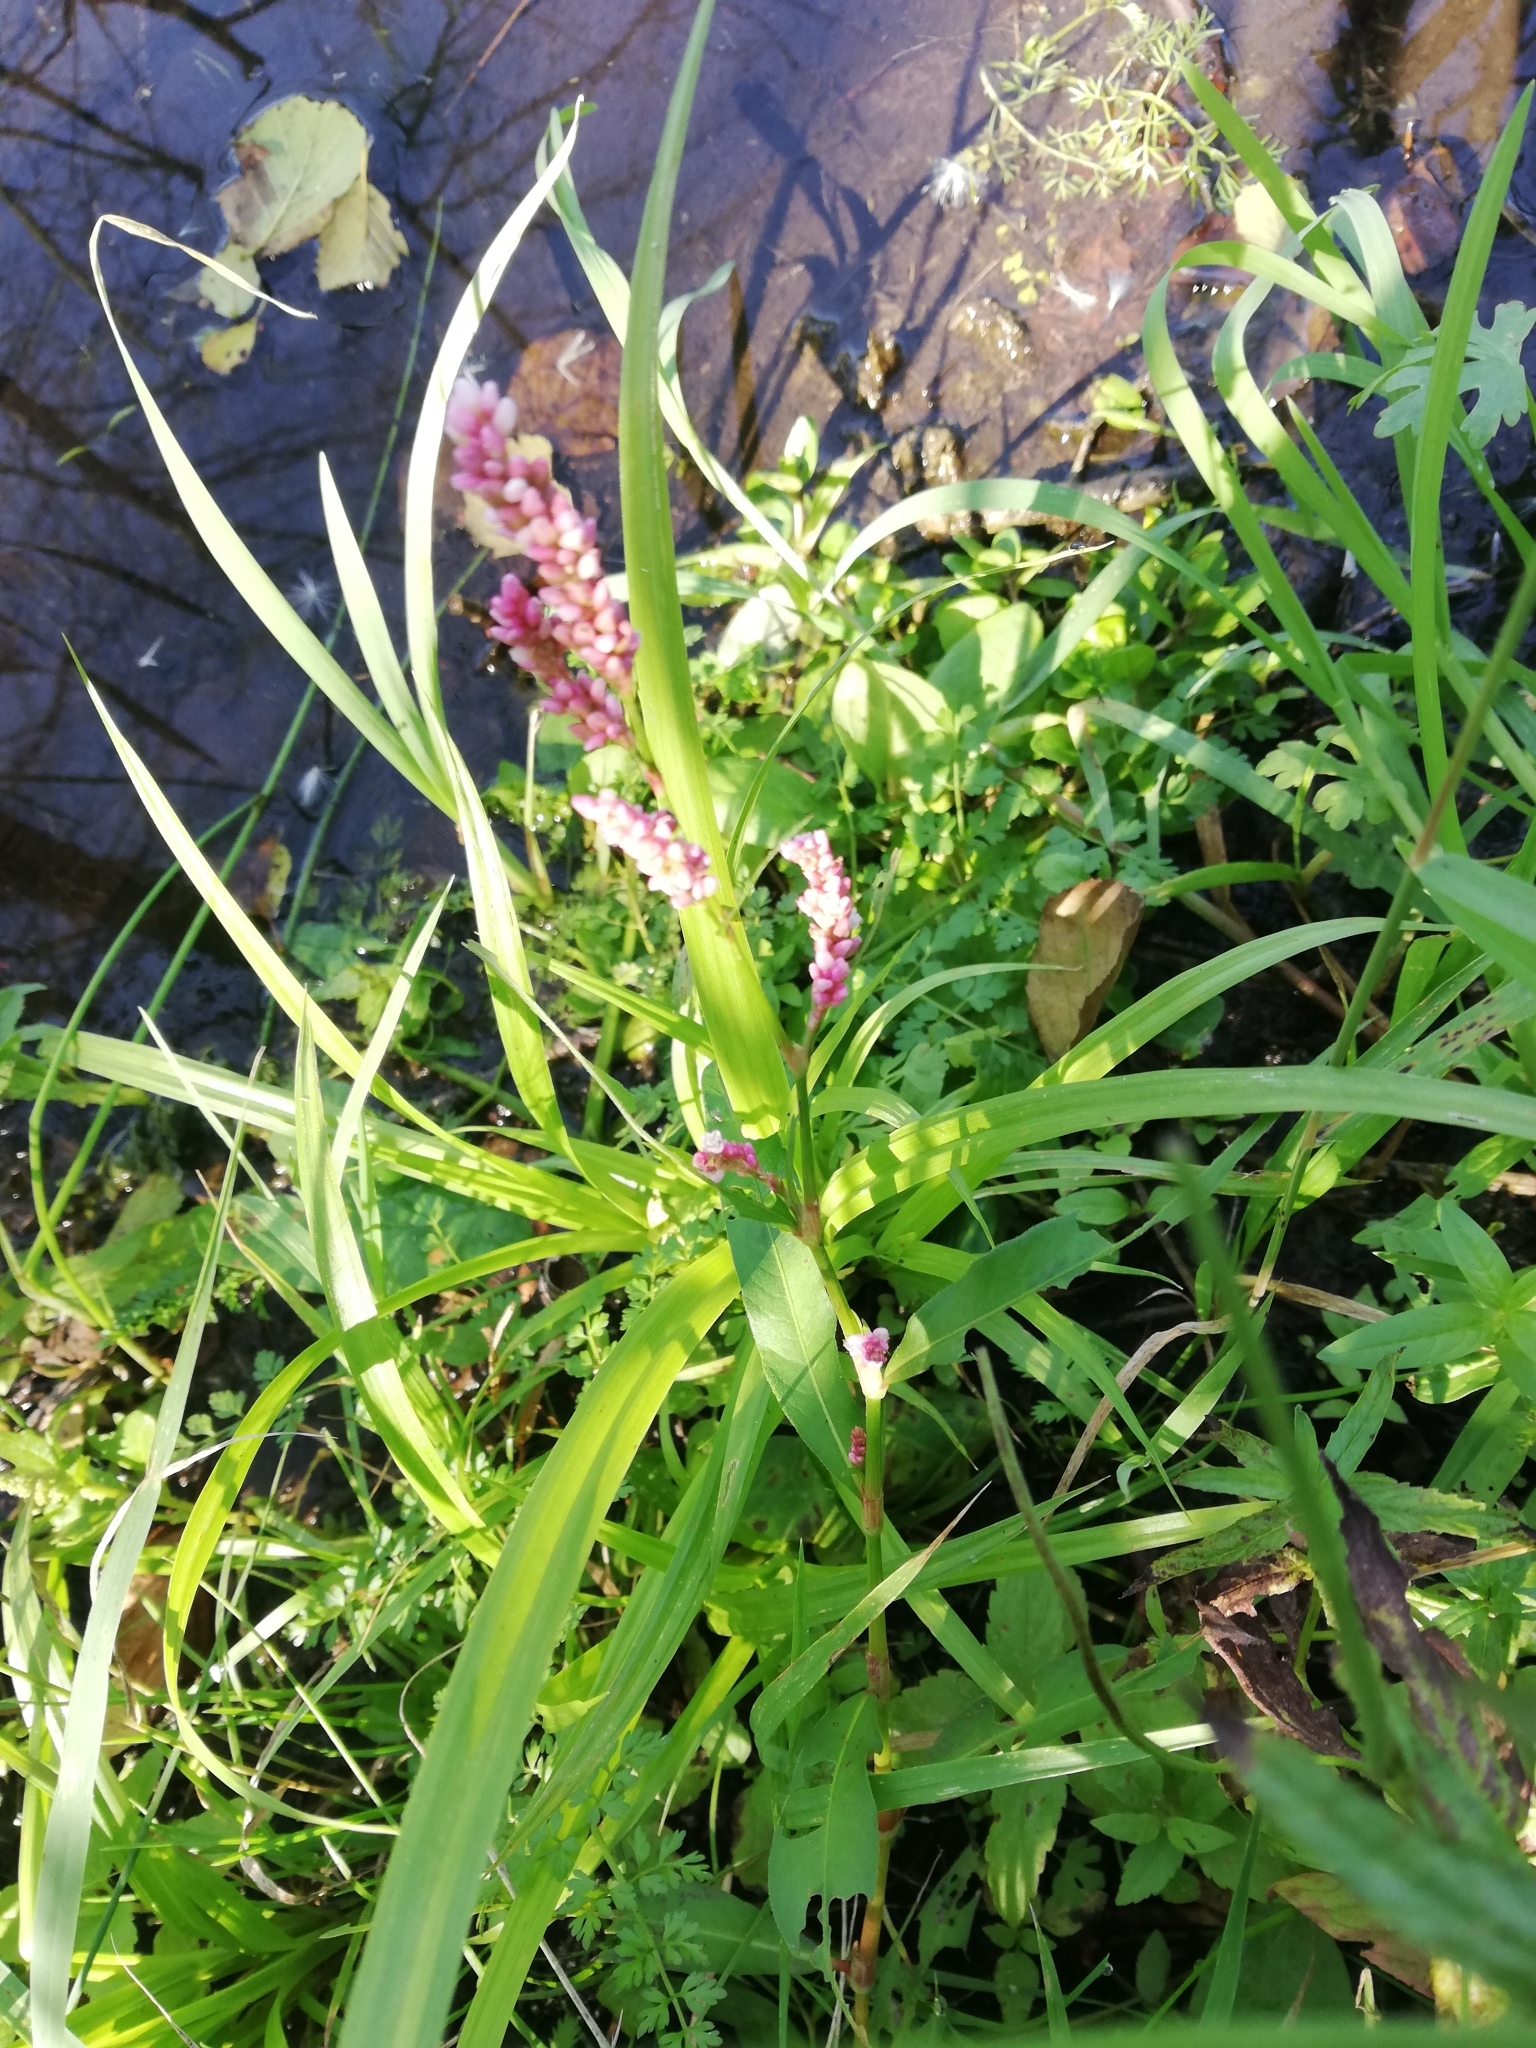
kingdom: Plantae
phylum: Tracheophyta
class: Magnoliopsida
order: Caryophyllales
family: Polygonaceae
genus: Persicaria
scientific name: Persicaria maculosa
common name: Redshank
